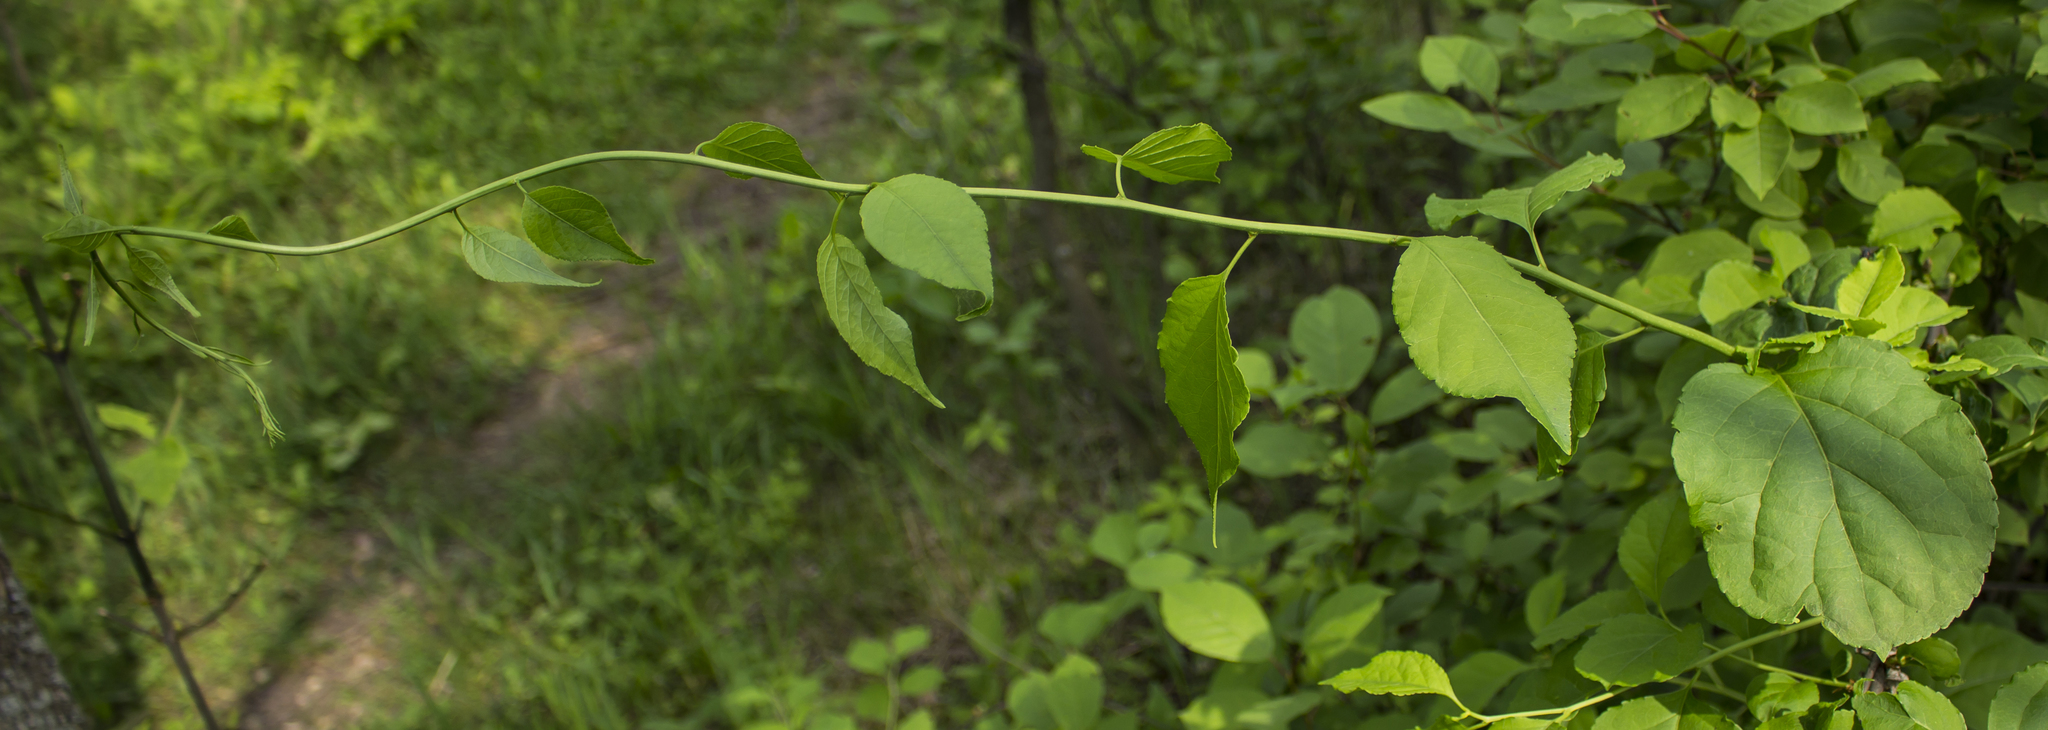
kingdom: Plantae
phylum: Tracheophyta
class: Magnoliopsida
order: Celastrales
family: Celastraceae
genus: Celastrus
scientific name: Celastrus orbiculatus
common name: Oriental bittersweet
